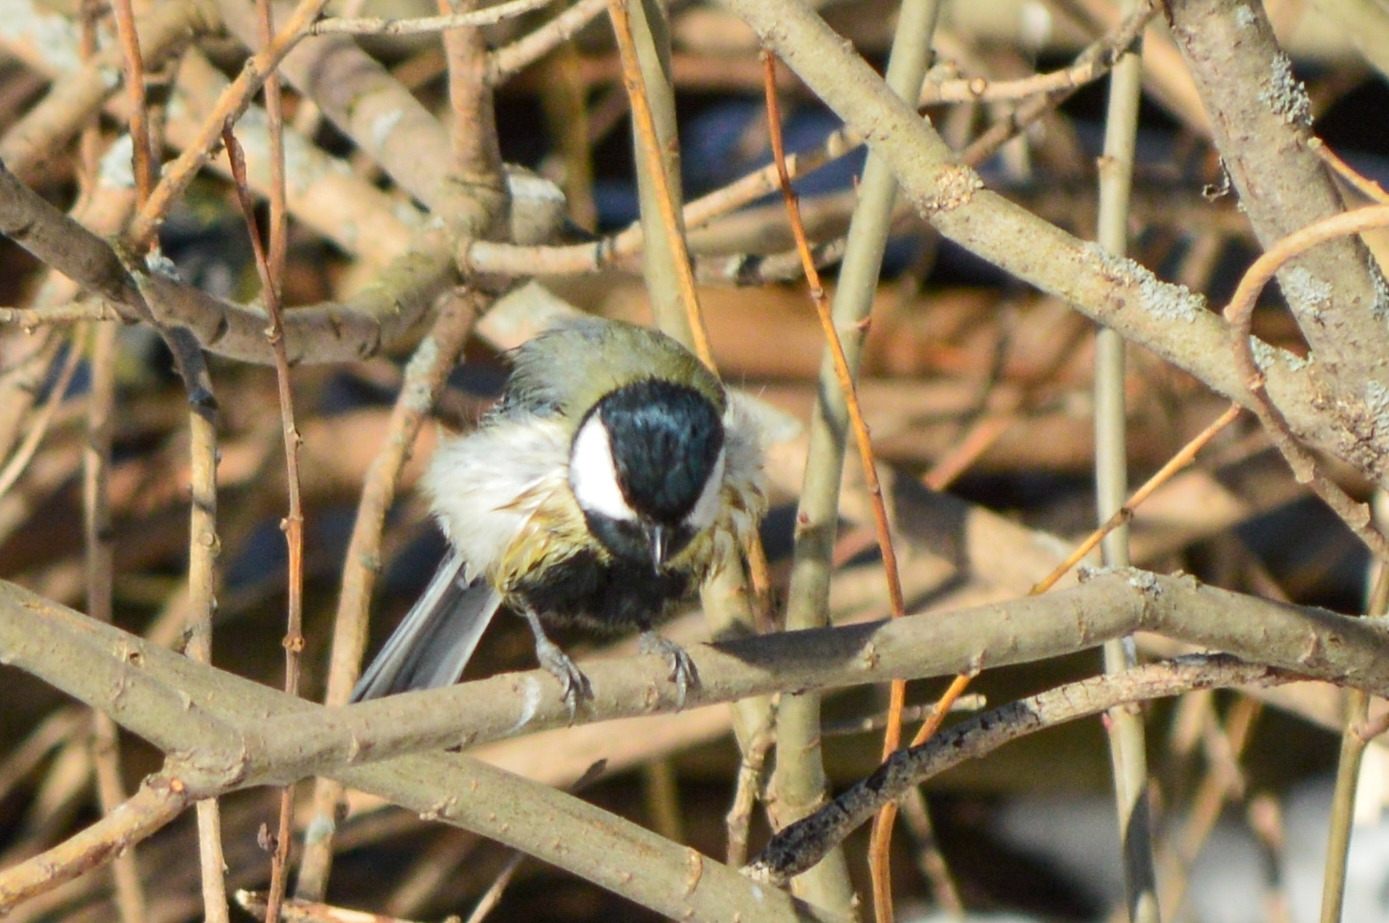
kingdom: Animalia
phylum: Chordata
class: Aves
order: Passeriformes
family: Paridae
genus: Parus
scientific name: Parus major
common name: Great tit
